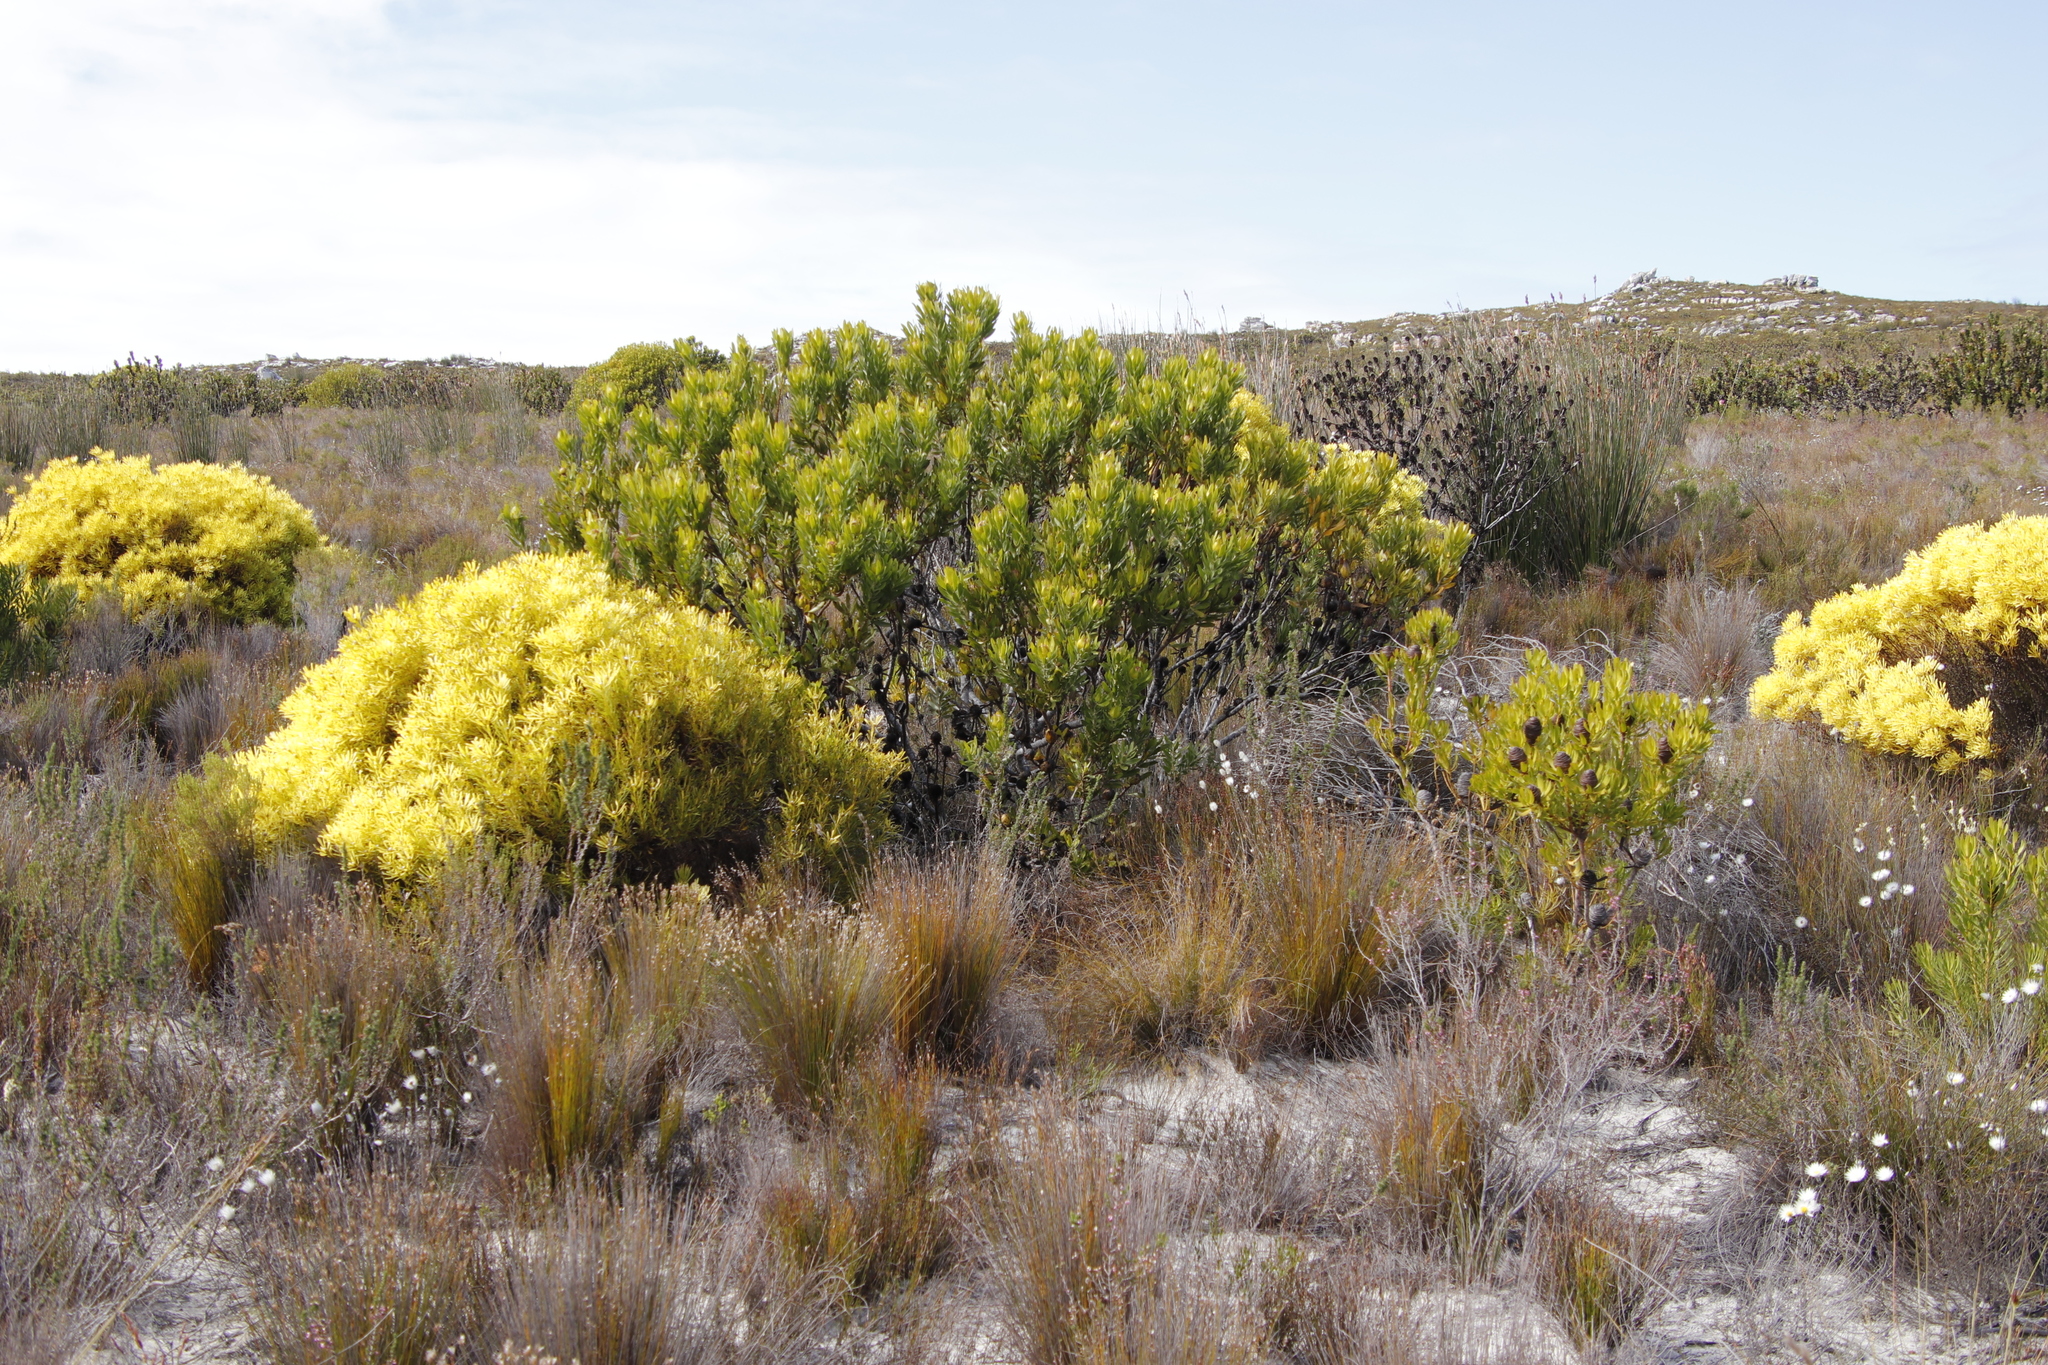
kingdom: Plantae
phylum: Tracheophyta
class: Magnoliopsida
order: Proteales
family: Proteaceae
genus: Protea
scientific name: Protea repens
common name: Sugarbush
